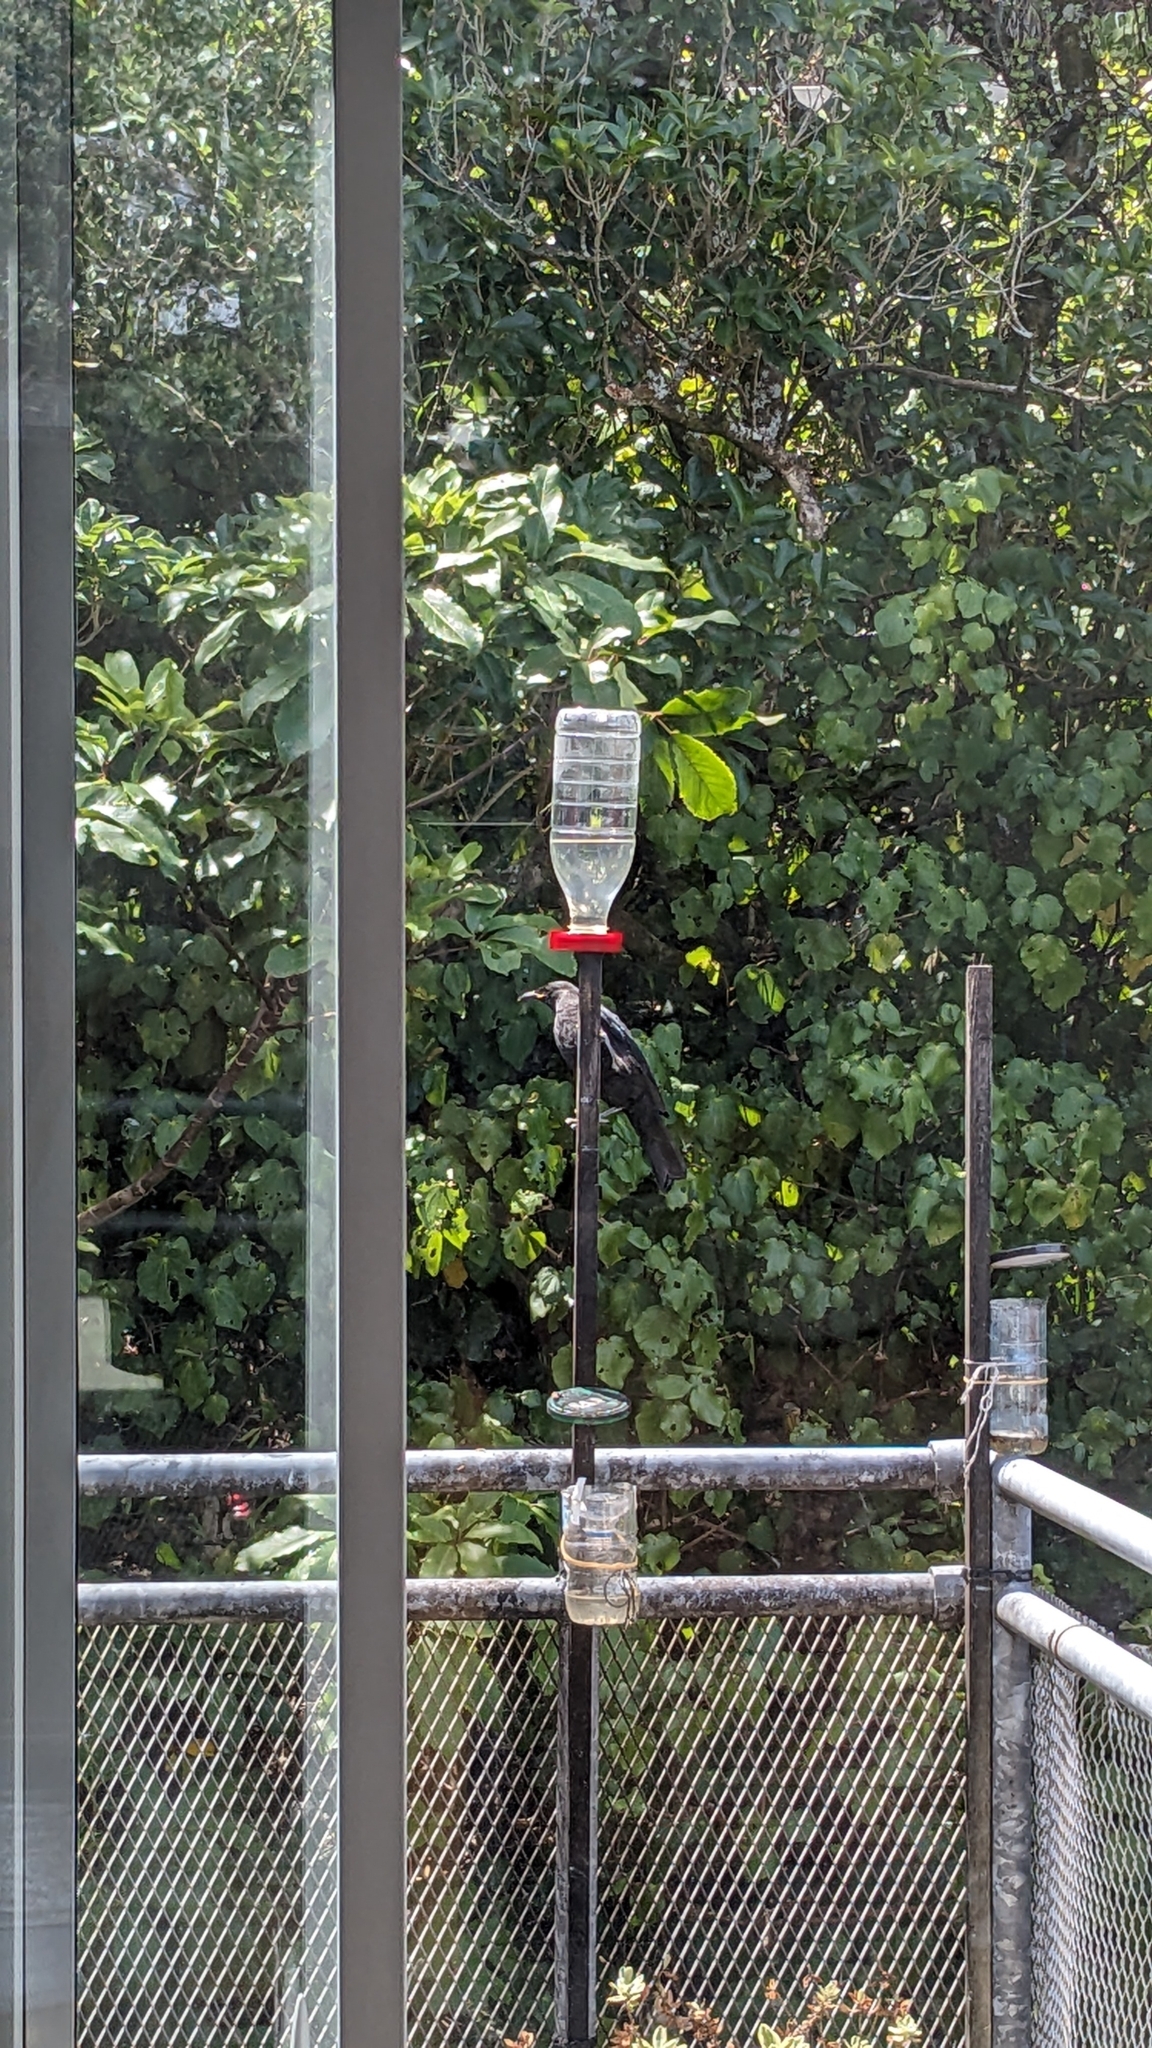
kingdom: Animalia
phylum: Chordata
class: Aves
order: Passeriformes
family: Meliphagidae
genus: Prosthemadera
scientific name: Prosthemadera novaeseelandiae
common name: Tui
